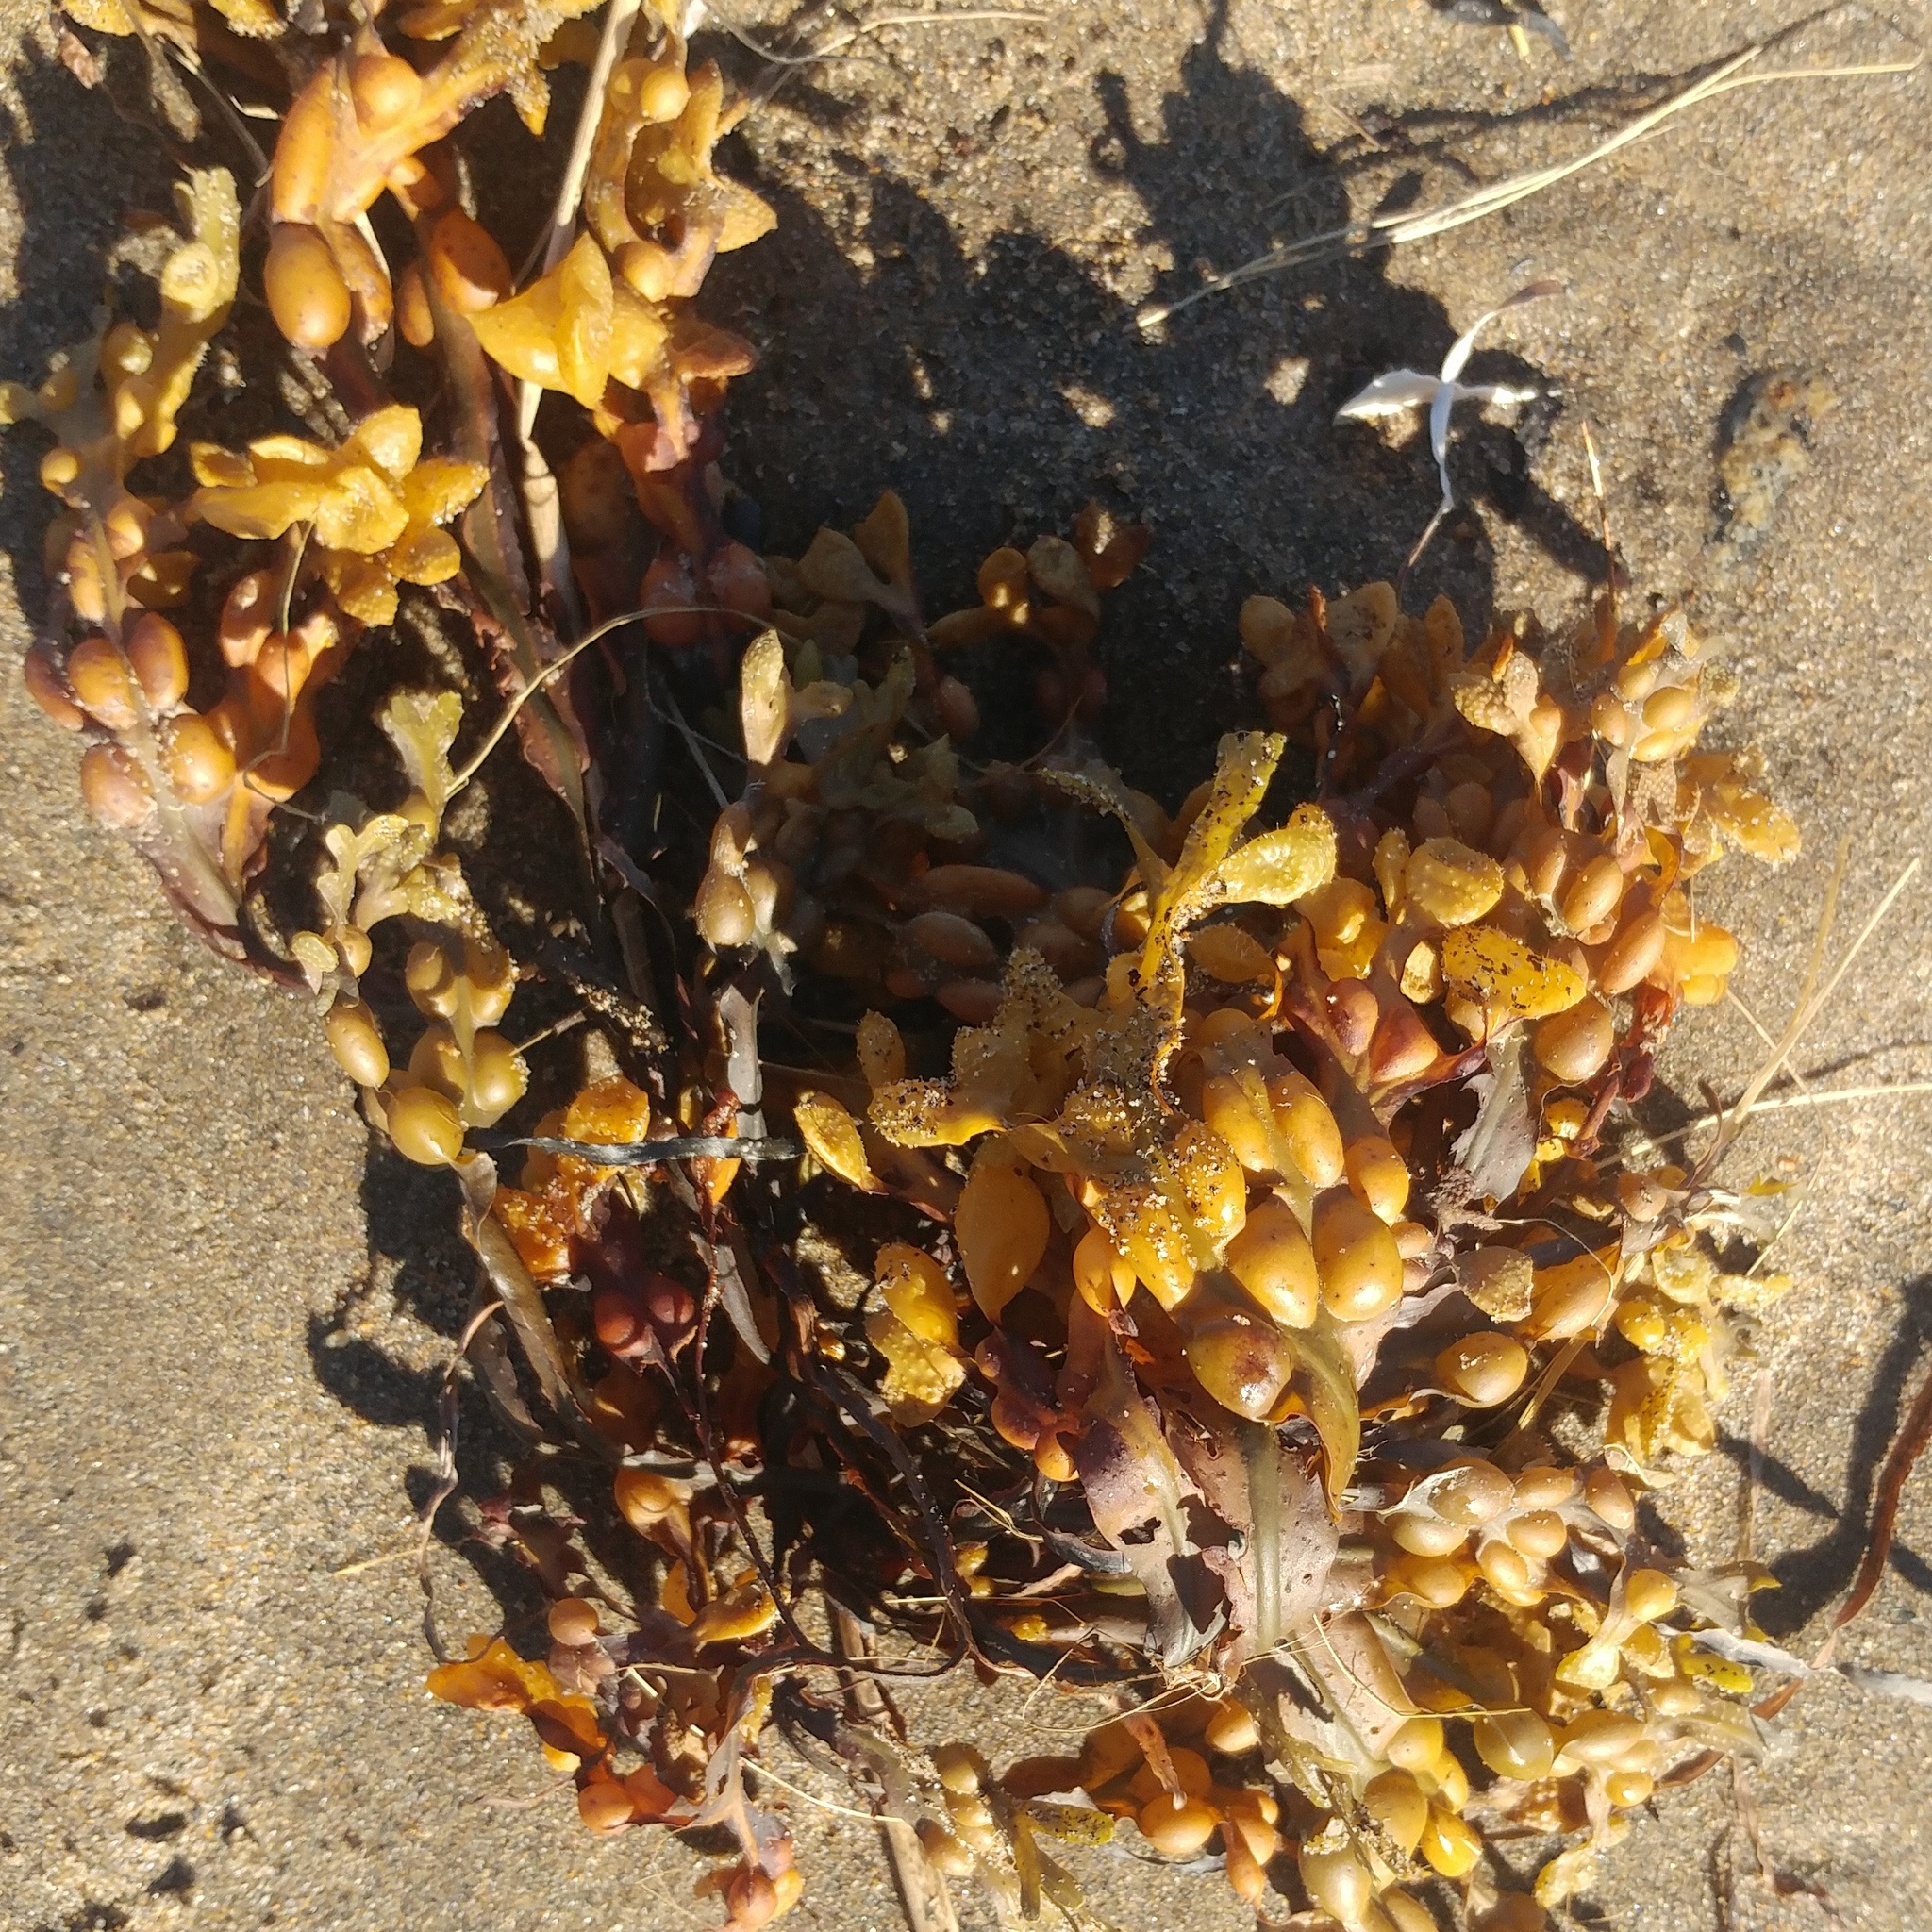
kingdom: Chromista
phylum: Ochrophyta
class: Phaeophyceae
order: Fucales
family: Fucaceae
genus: Fucus
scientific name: Fucus vesiculosus
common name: Bladder wrack
